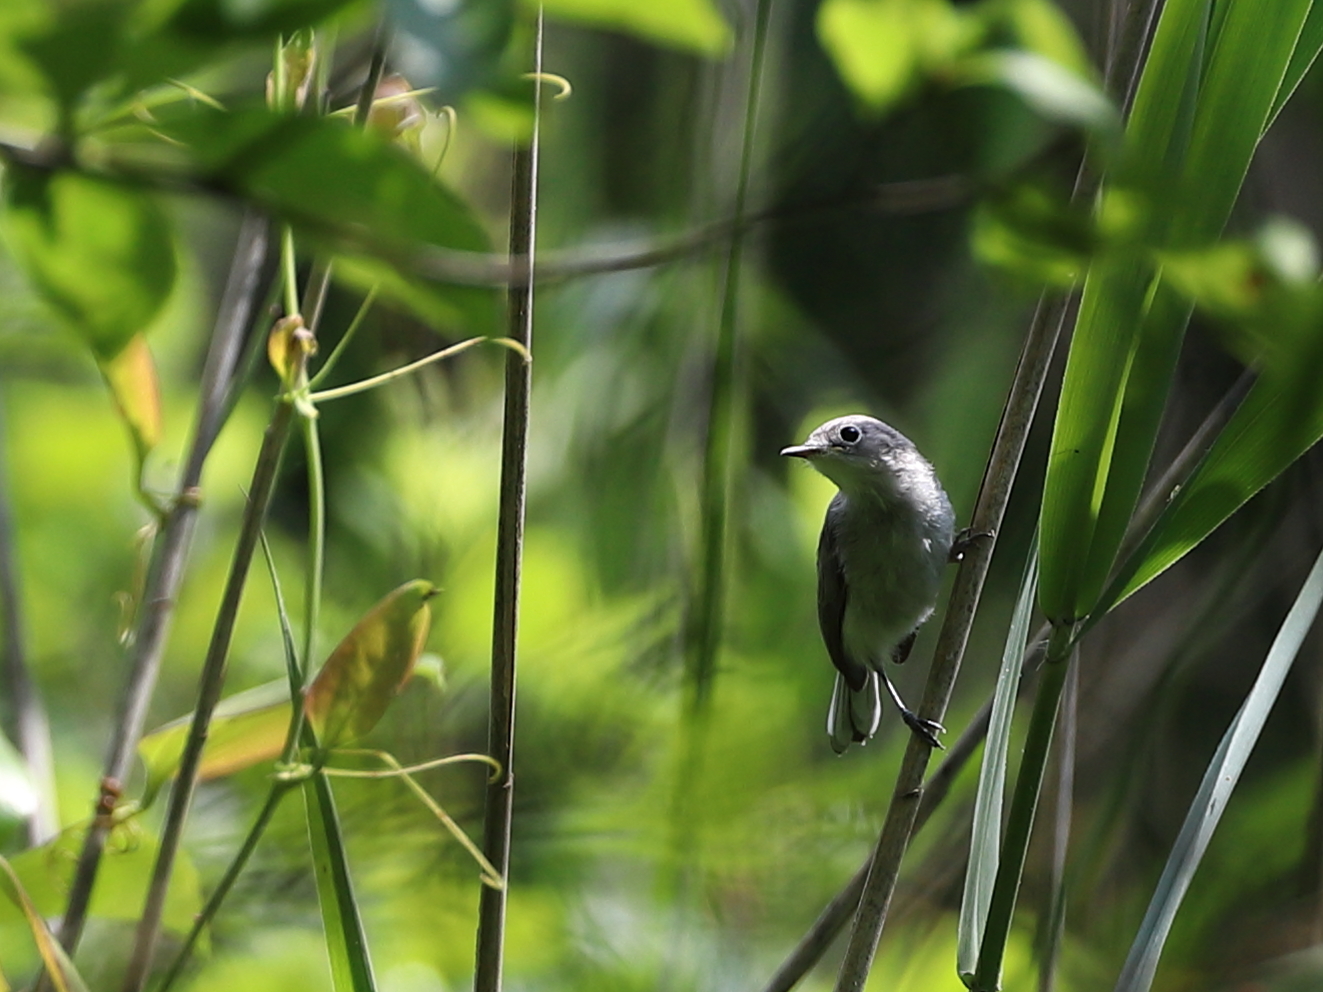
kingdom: Animalia
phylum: Chordata
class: Aves
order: Passeriformes
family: Polioptilidae
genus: Polioptila
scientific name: Polioptila caerulea
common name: Blue-gray gnatcatcher
